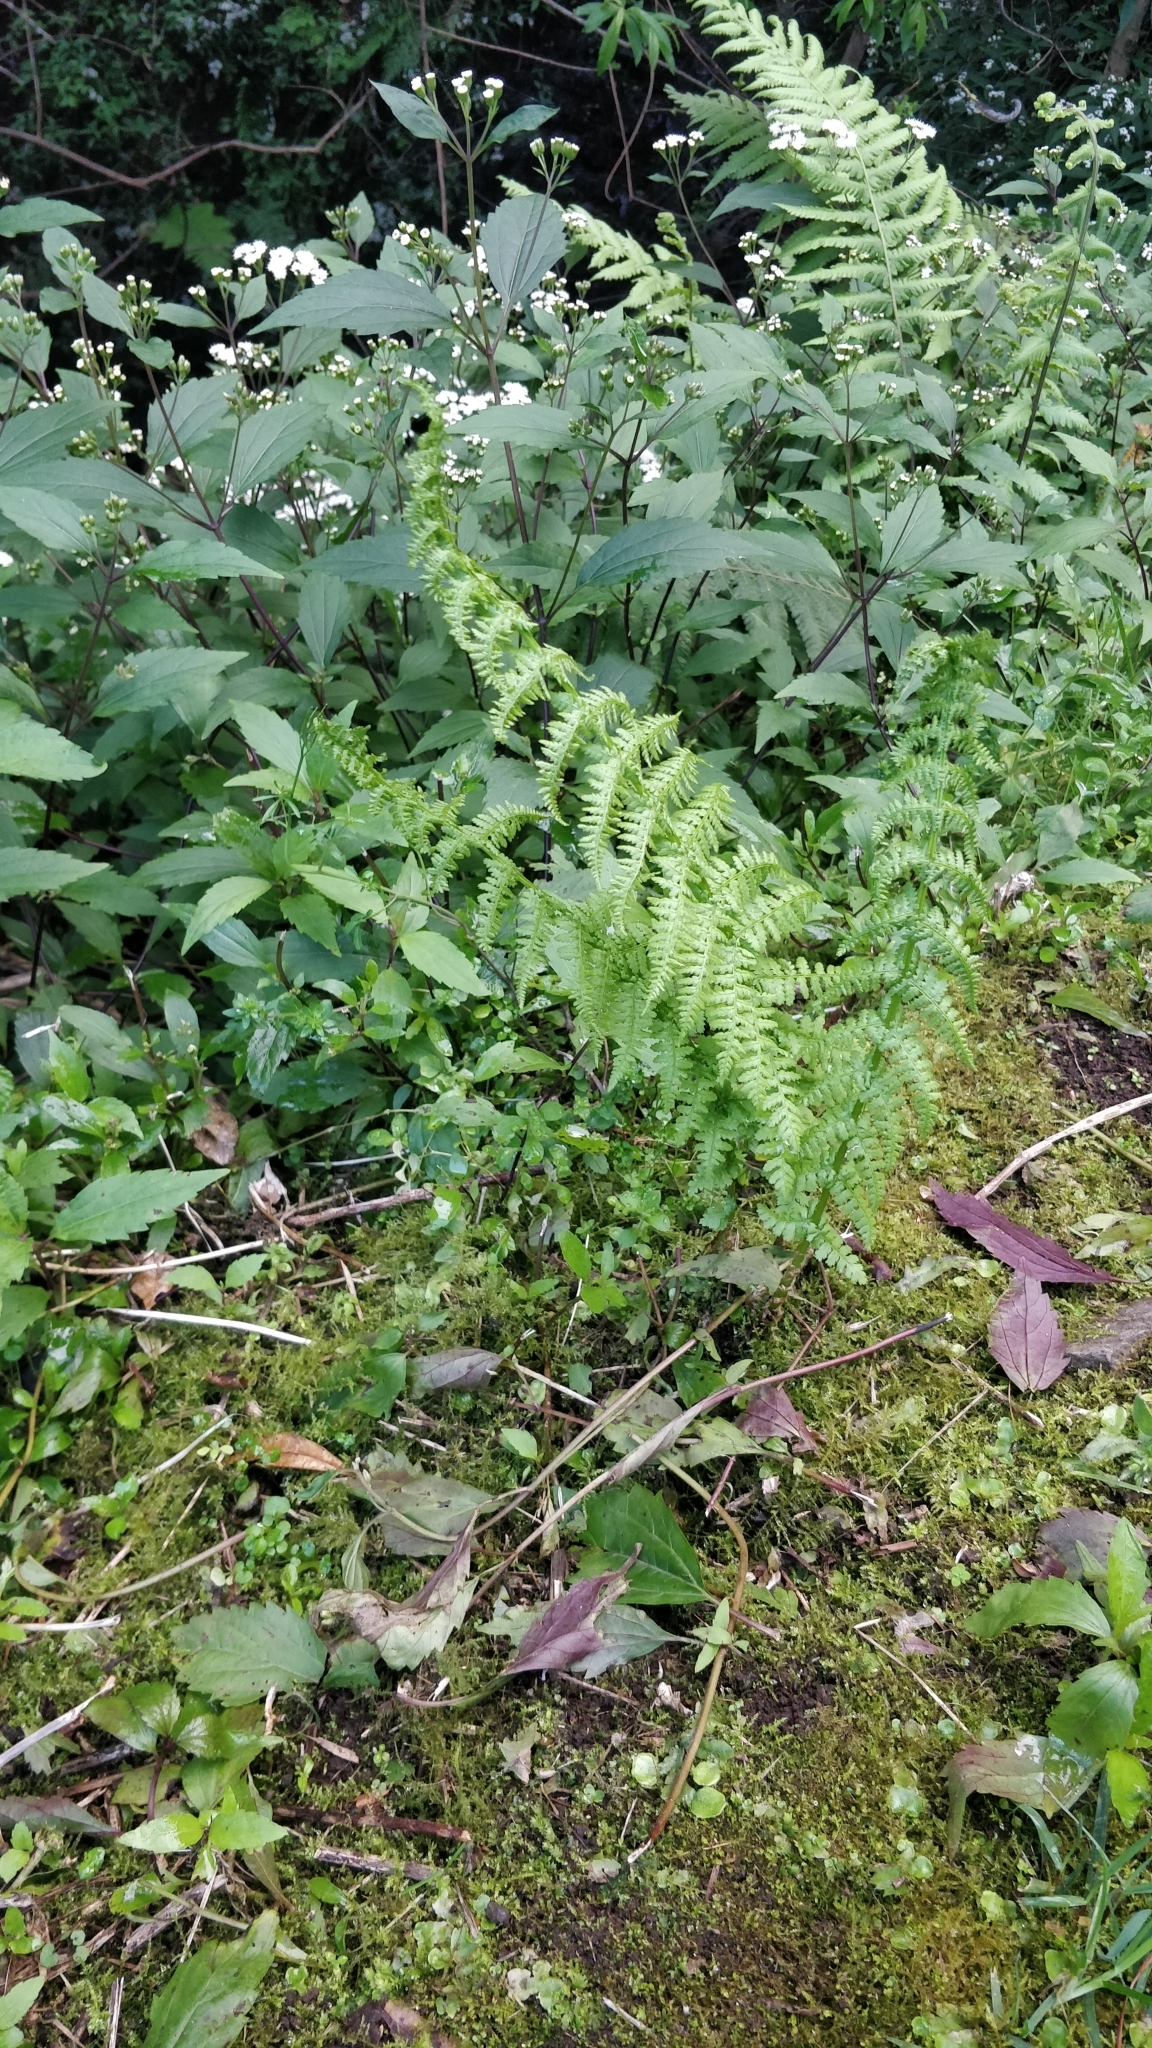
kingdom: Plantae
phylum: Tracheophyta
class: Polypodiopsida
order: Polypodiales
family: Athyriaceae
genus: Athyrium
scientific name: Athyrium filix-femina
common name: Lady fern
